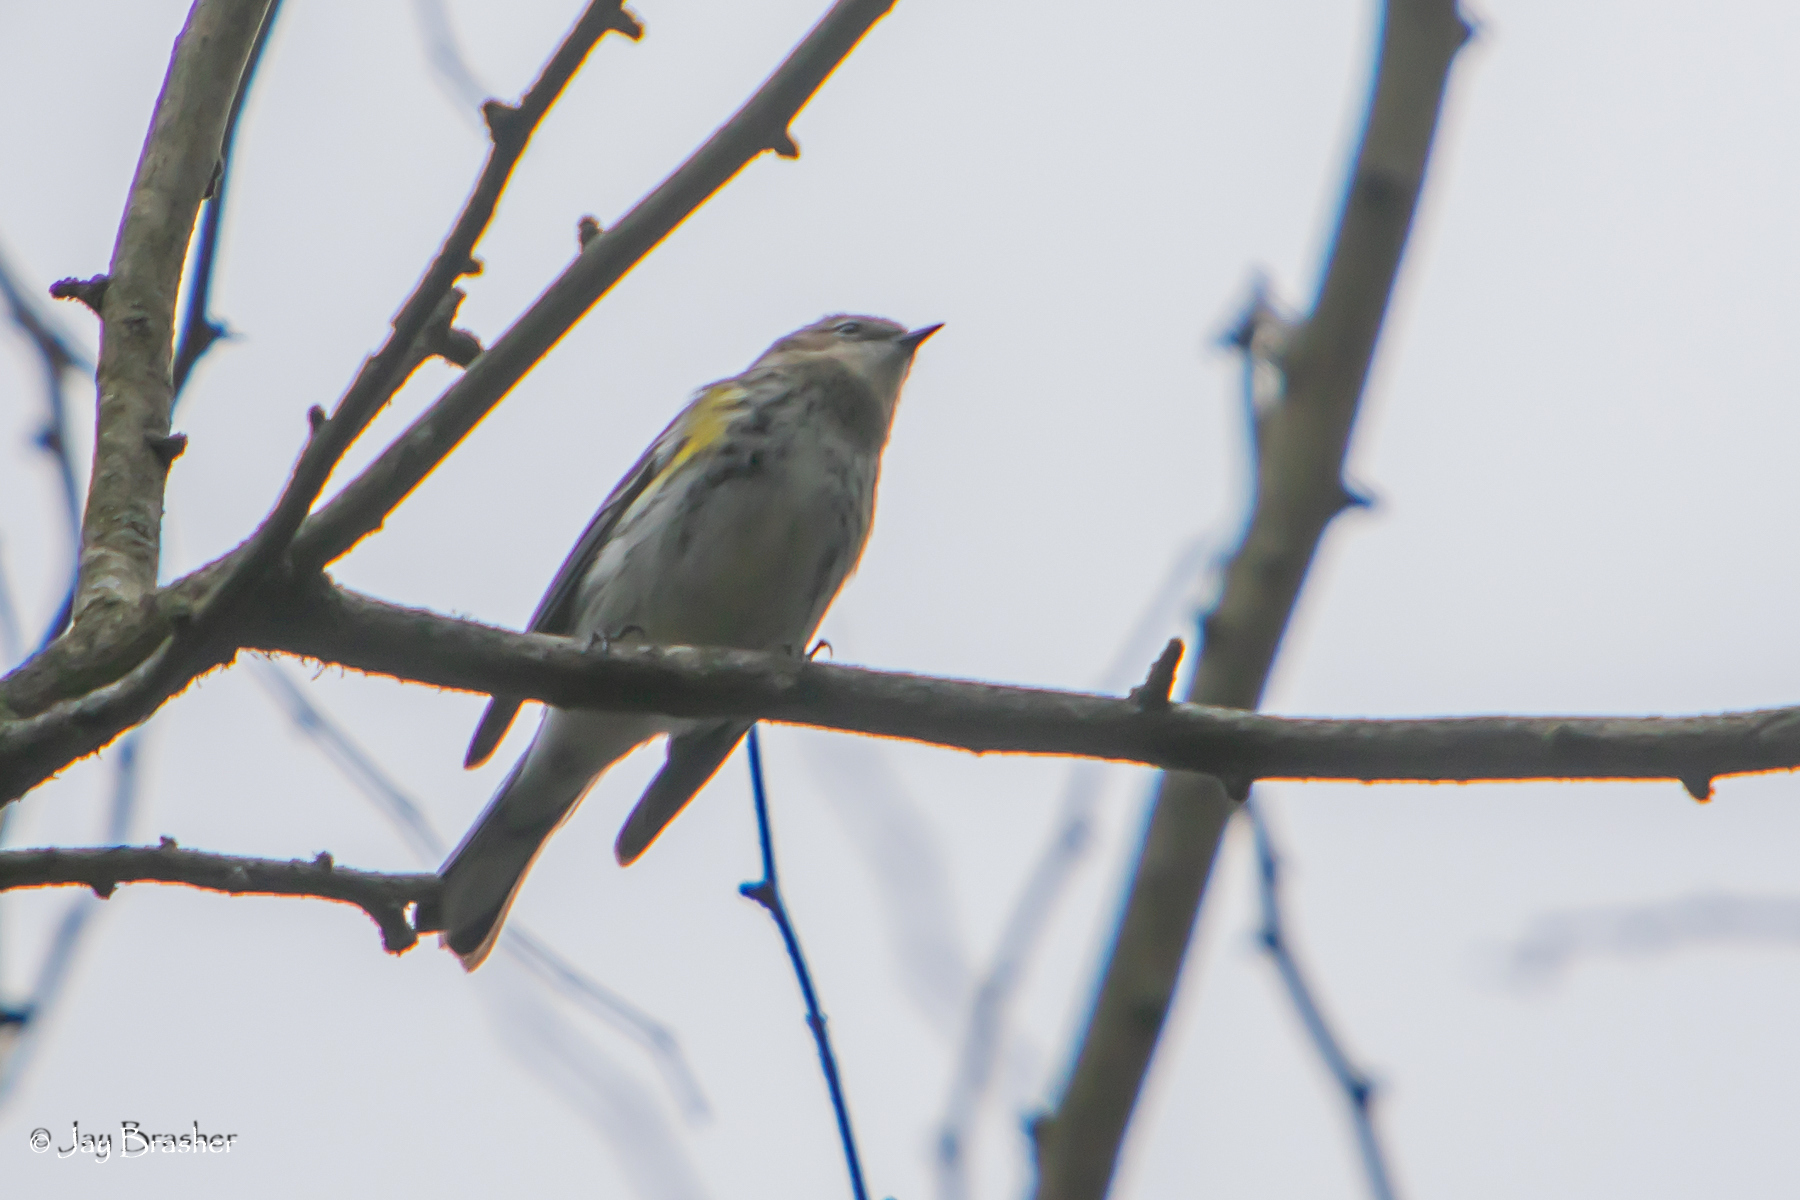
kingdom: Animalia
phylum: Chordata
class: Aves
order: Passeriformes
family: Parulidae
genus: Setophaga
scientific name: Setophaga coronata
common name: Myrtle warbler
